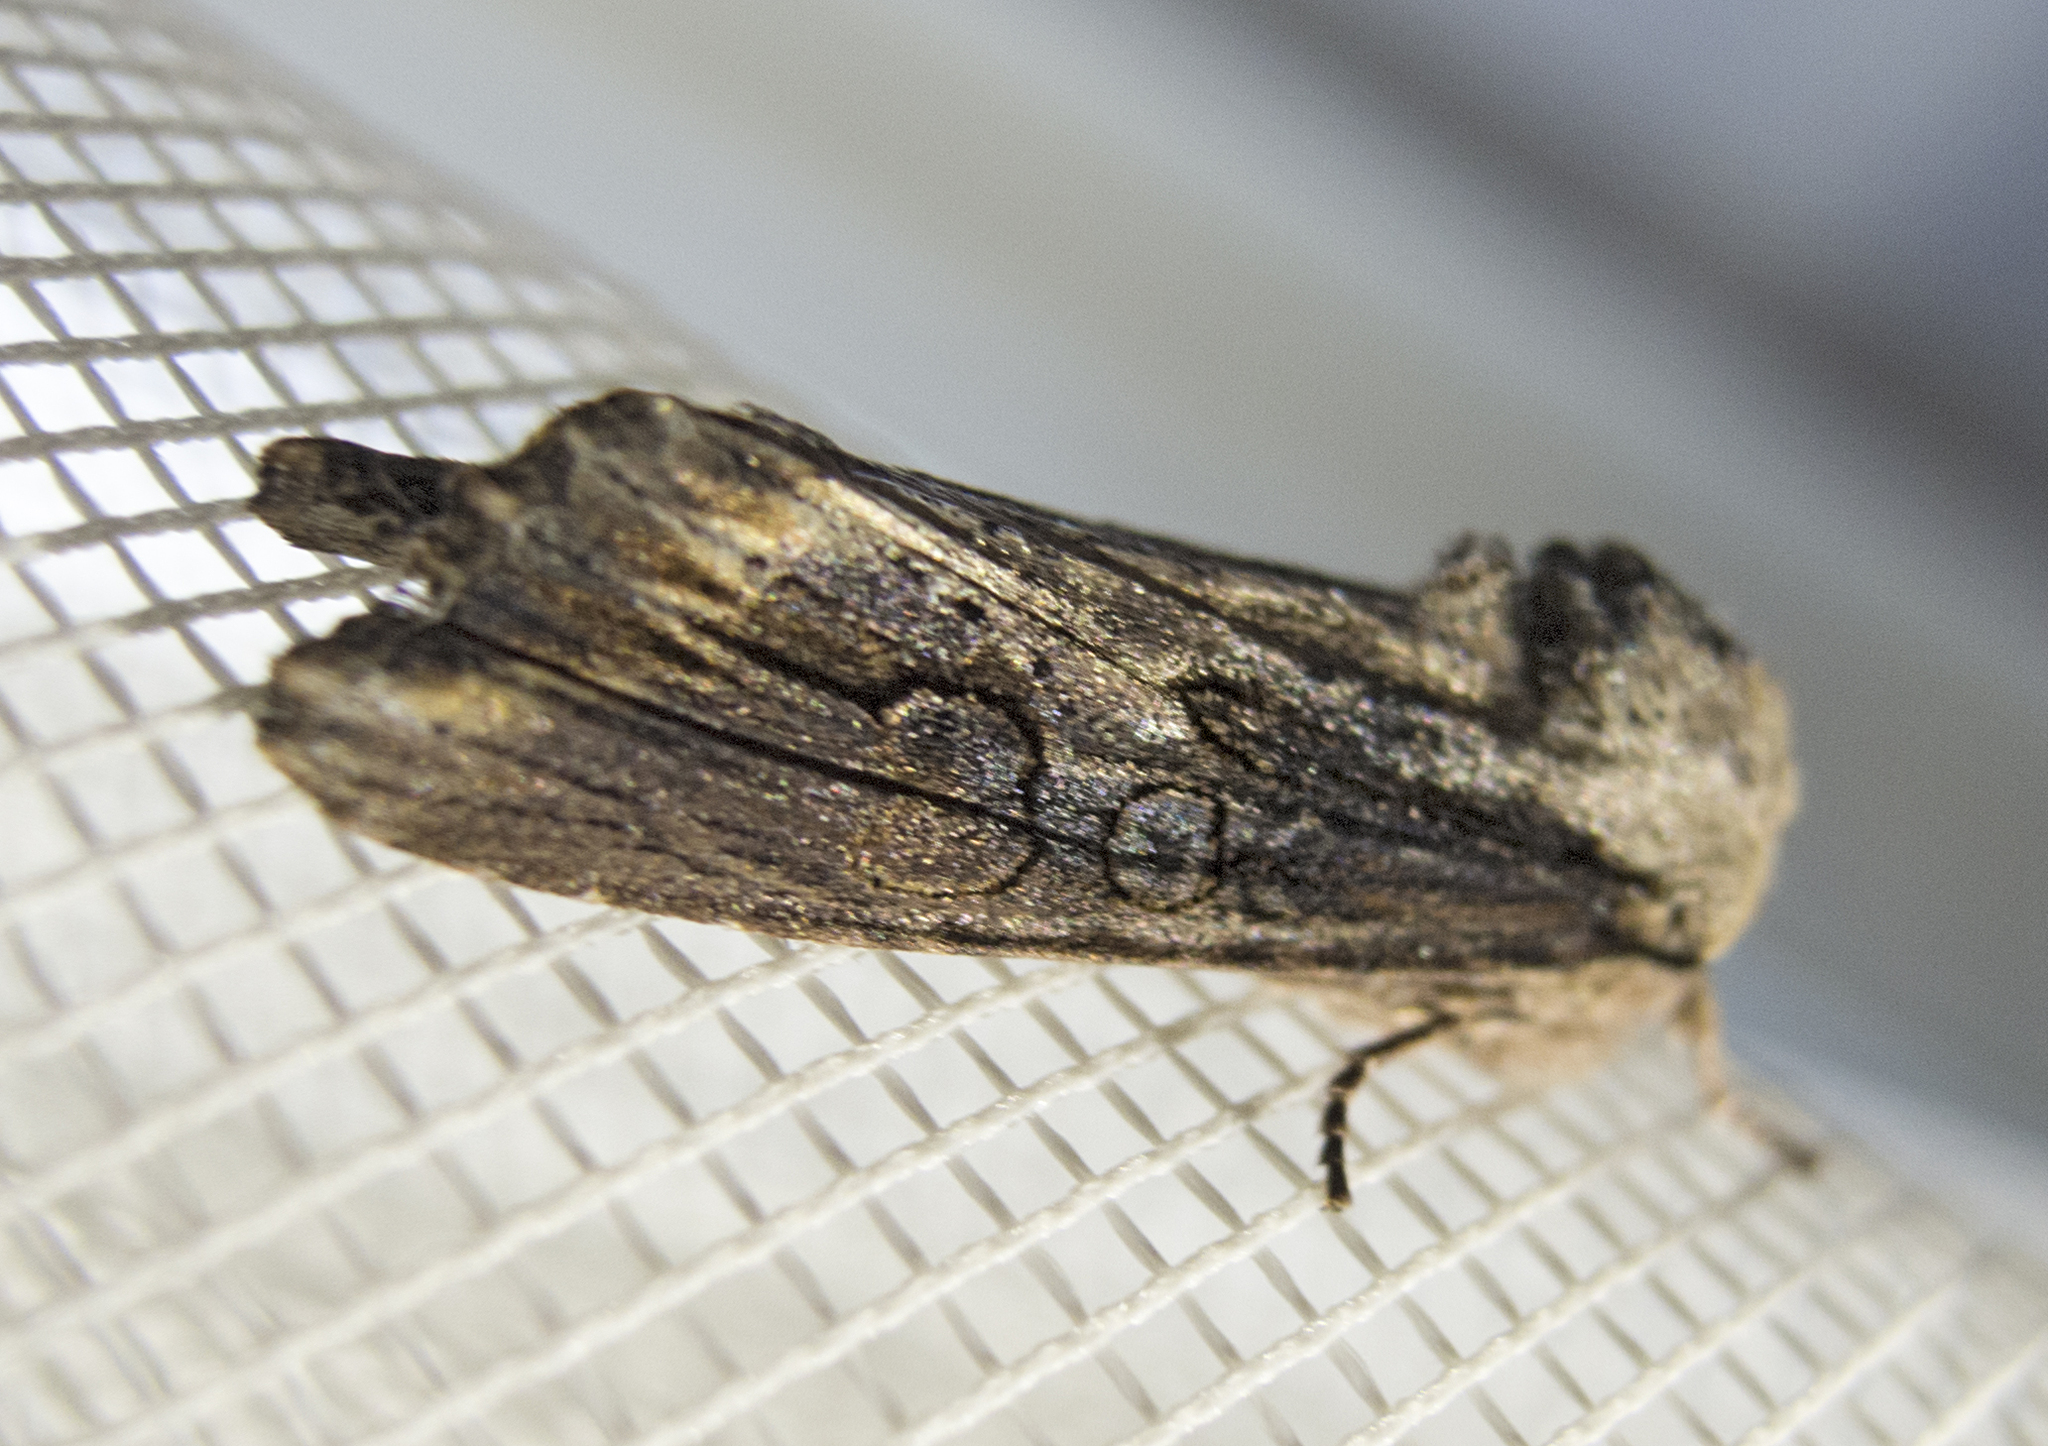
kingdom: Animalia
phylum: Arthropoda
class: Insecta
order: Lepidoptera
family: Noctuidae
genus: Egira
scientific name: Egira conspicillaris
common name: Silver cloud
